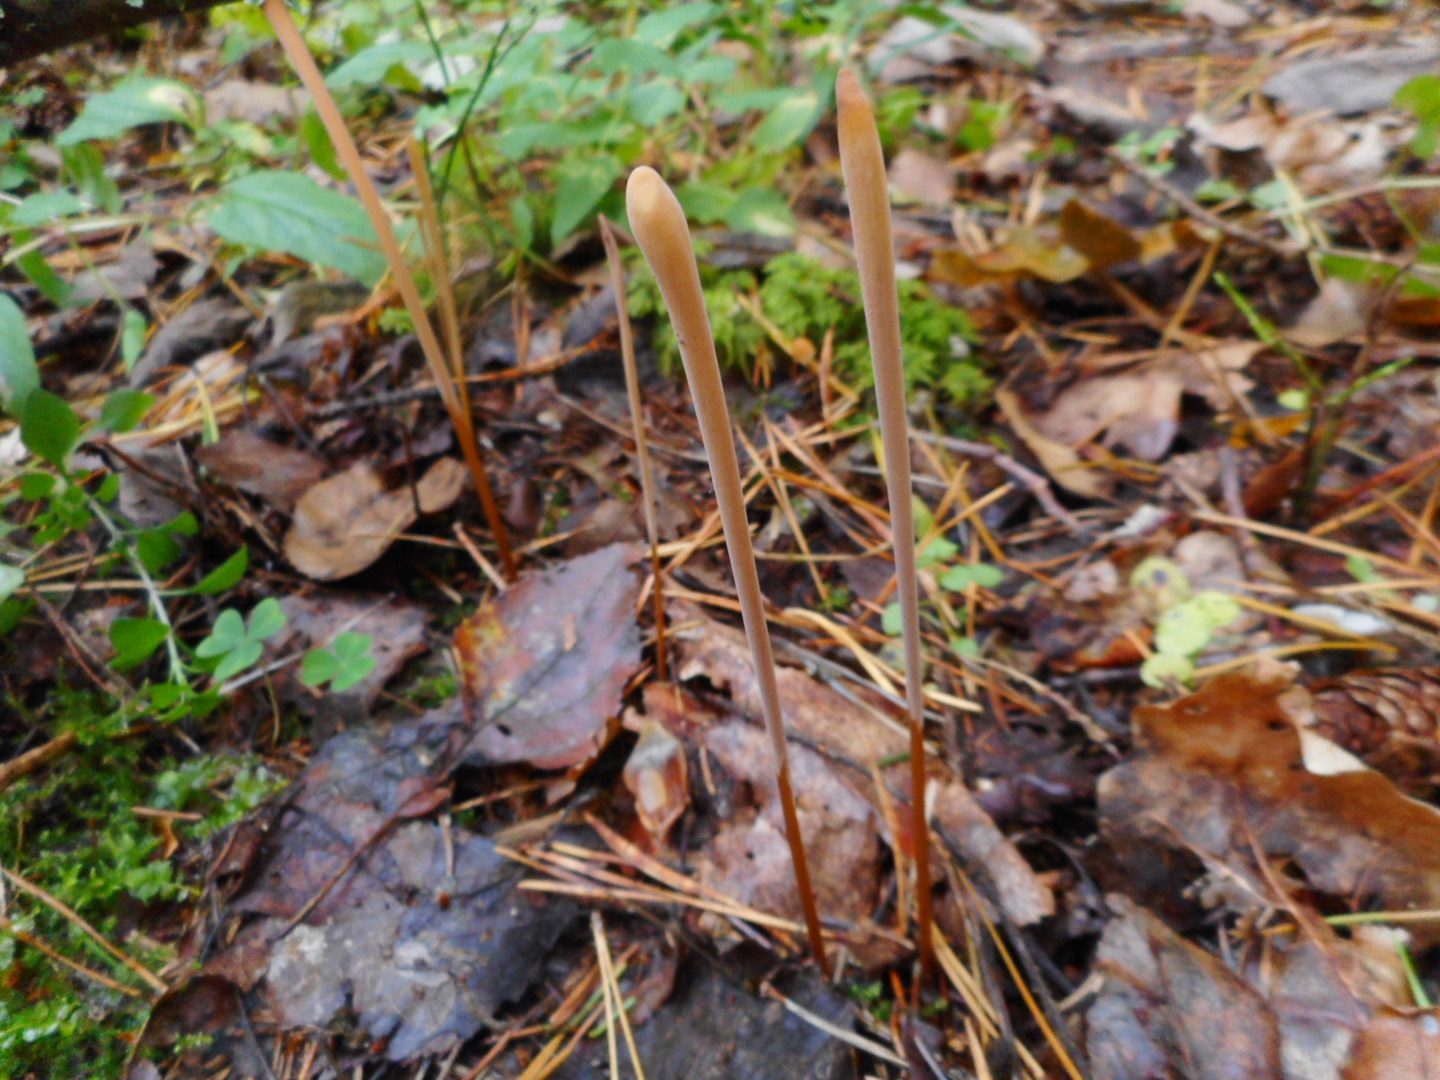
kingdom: Fungi
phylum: Basidiomycota
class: Agaricomycetes
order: Agaricales
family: Typhulaceae
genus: Typhula
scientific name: Typhula fistulosa
